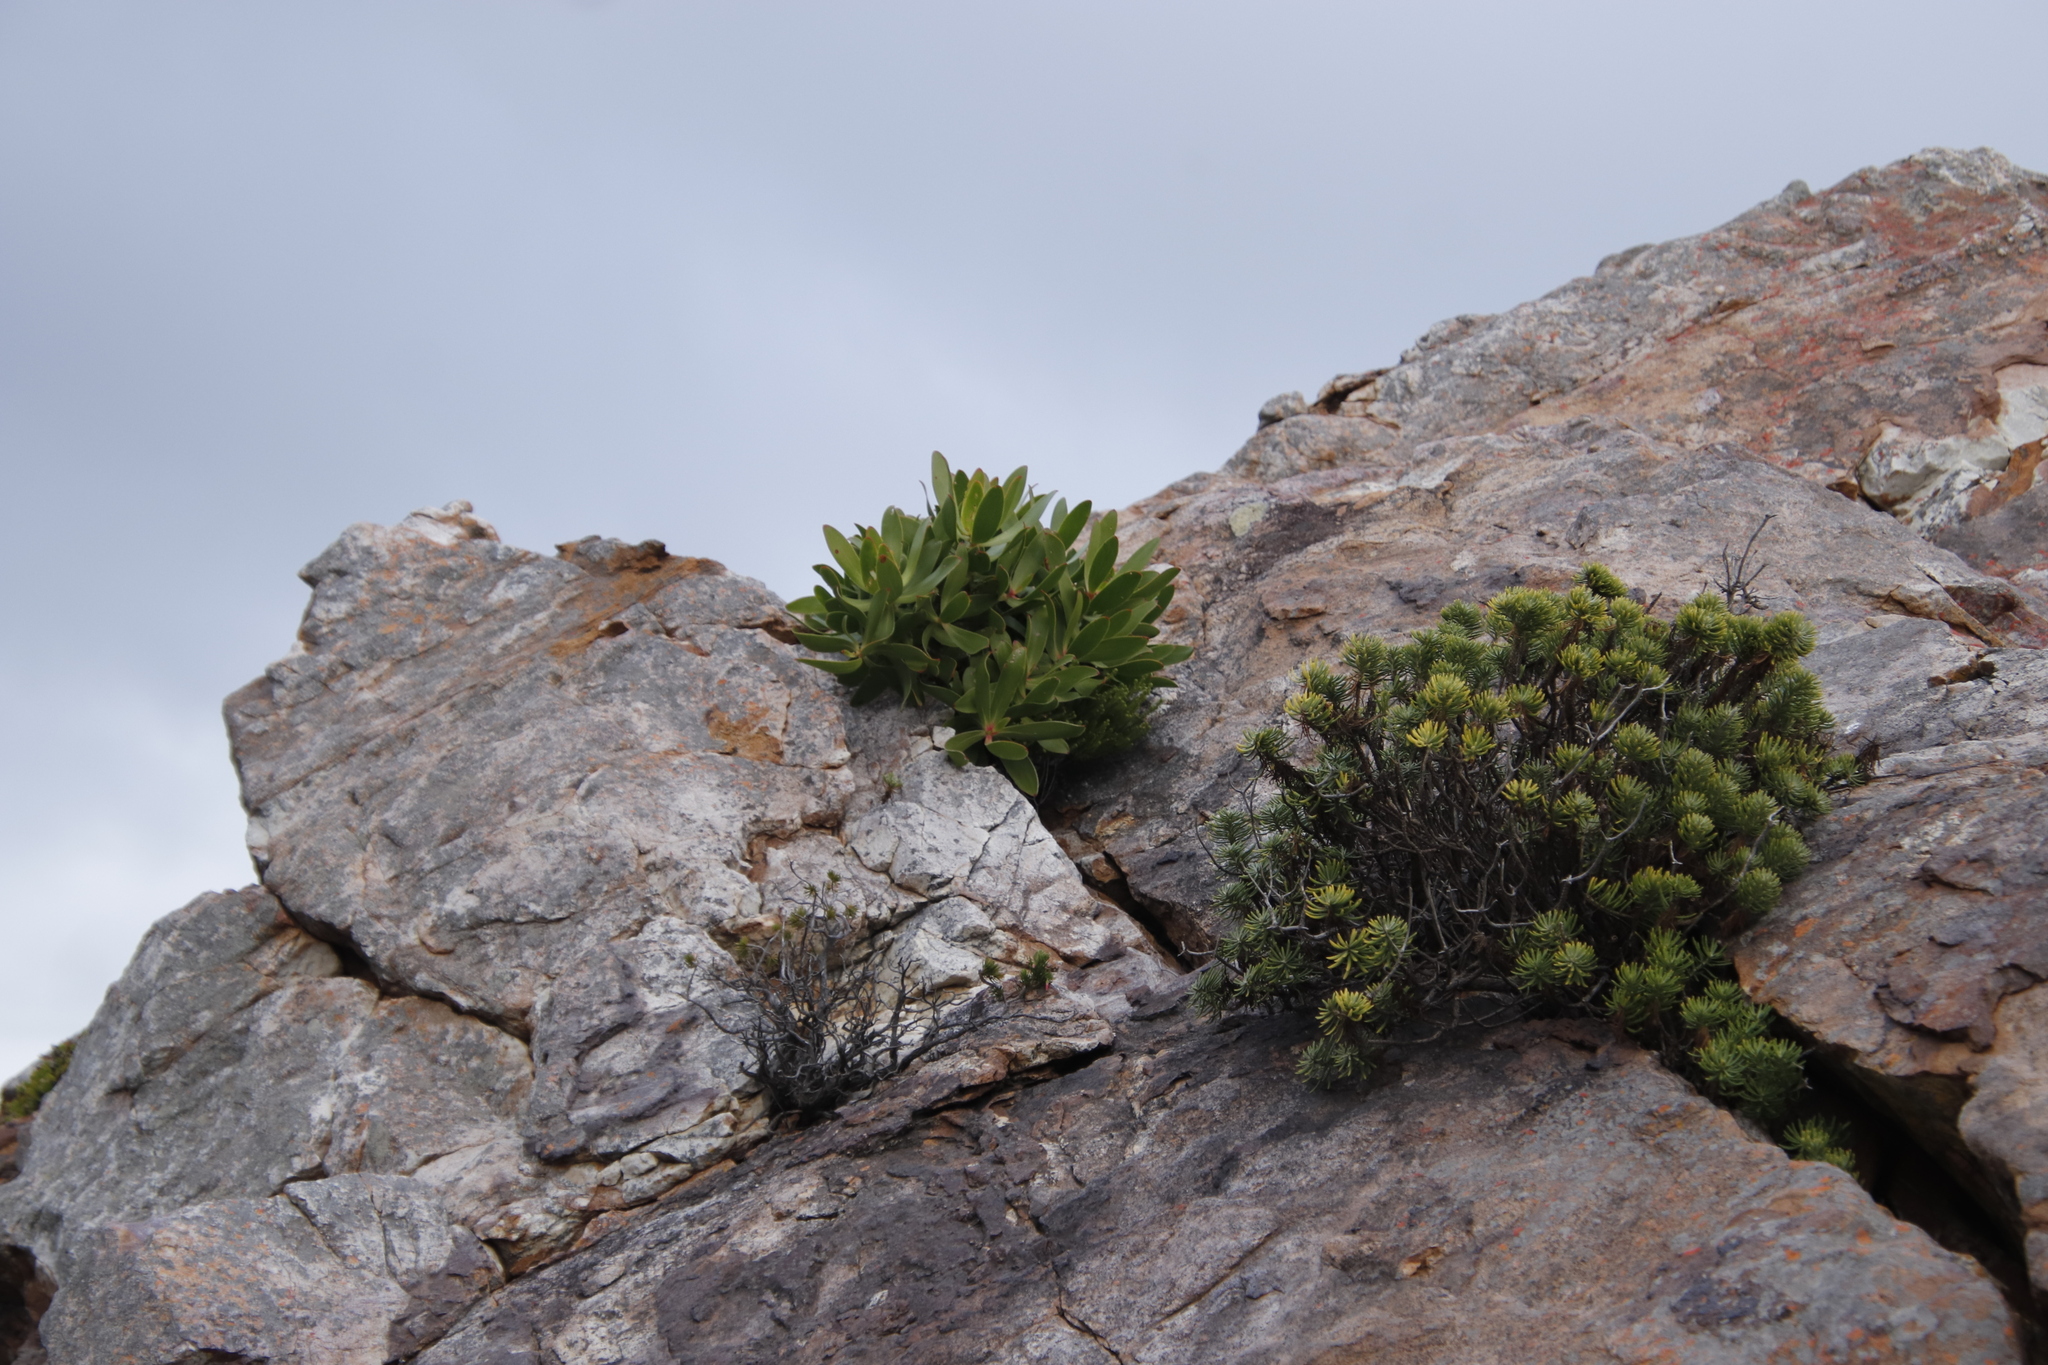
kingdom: Plantae
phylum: Tracheophyta
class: Magnoliopsida
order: Asterales
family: Asteraceae
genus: Heterolepis
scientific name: Heterolepis aliena
